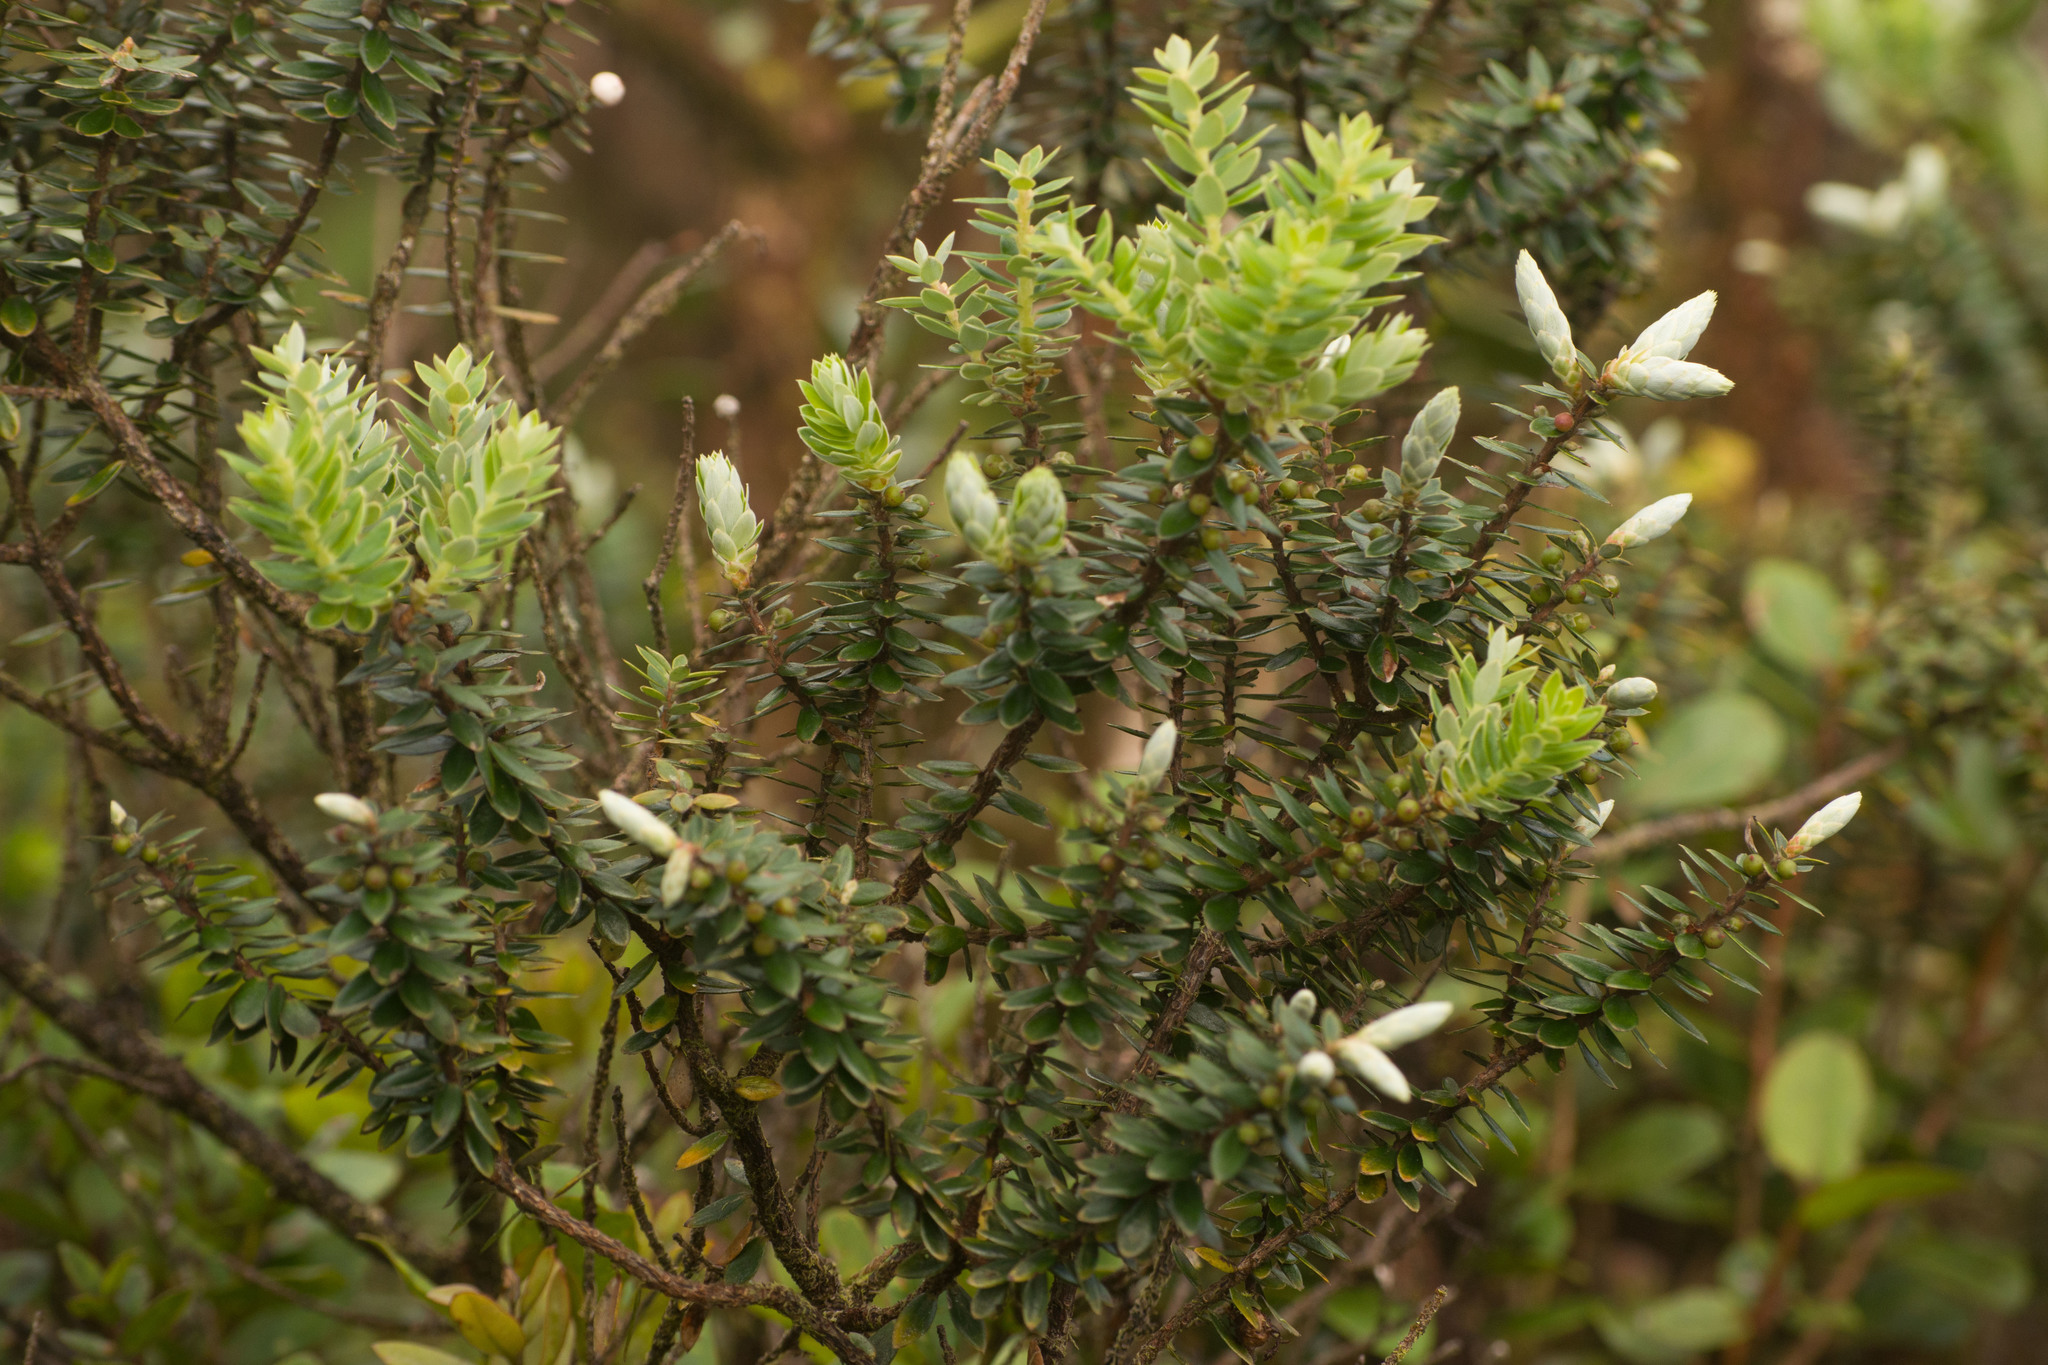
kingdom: Plantae
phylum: Tracheophyta
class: Magnoliopsida
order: Ericales
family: Ericaceae
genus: Leptecophylla
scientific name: Leptecophylla tameiameiae
